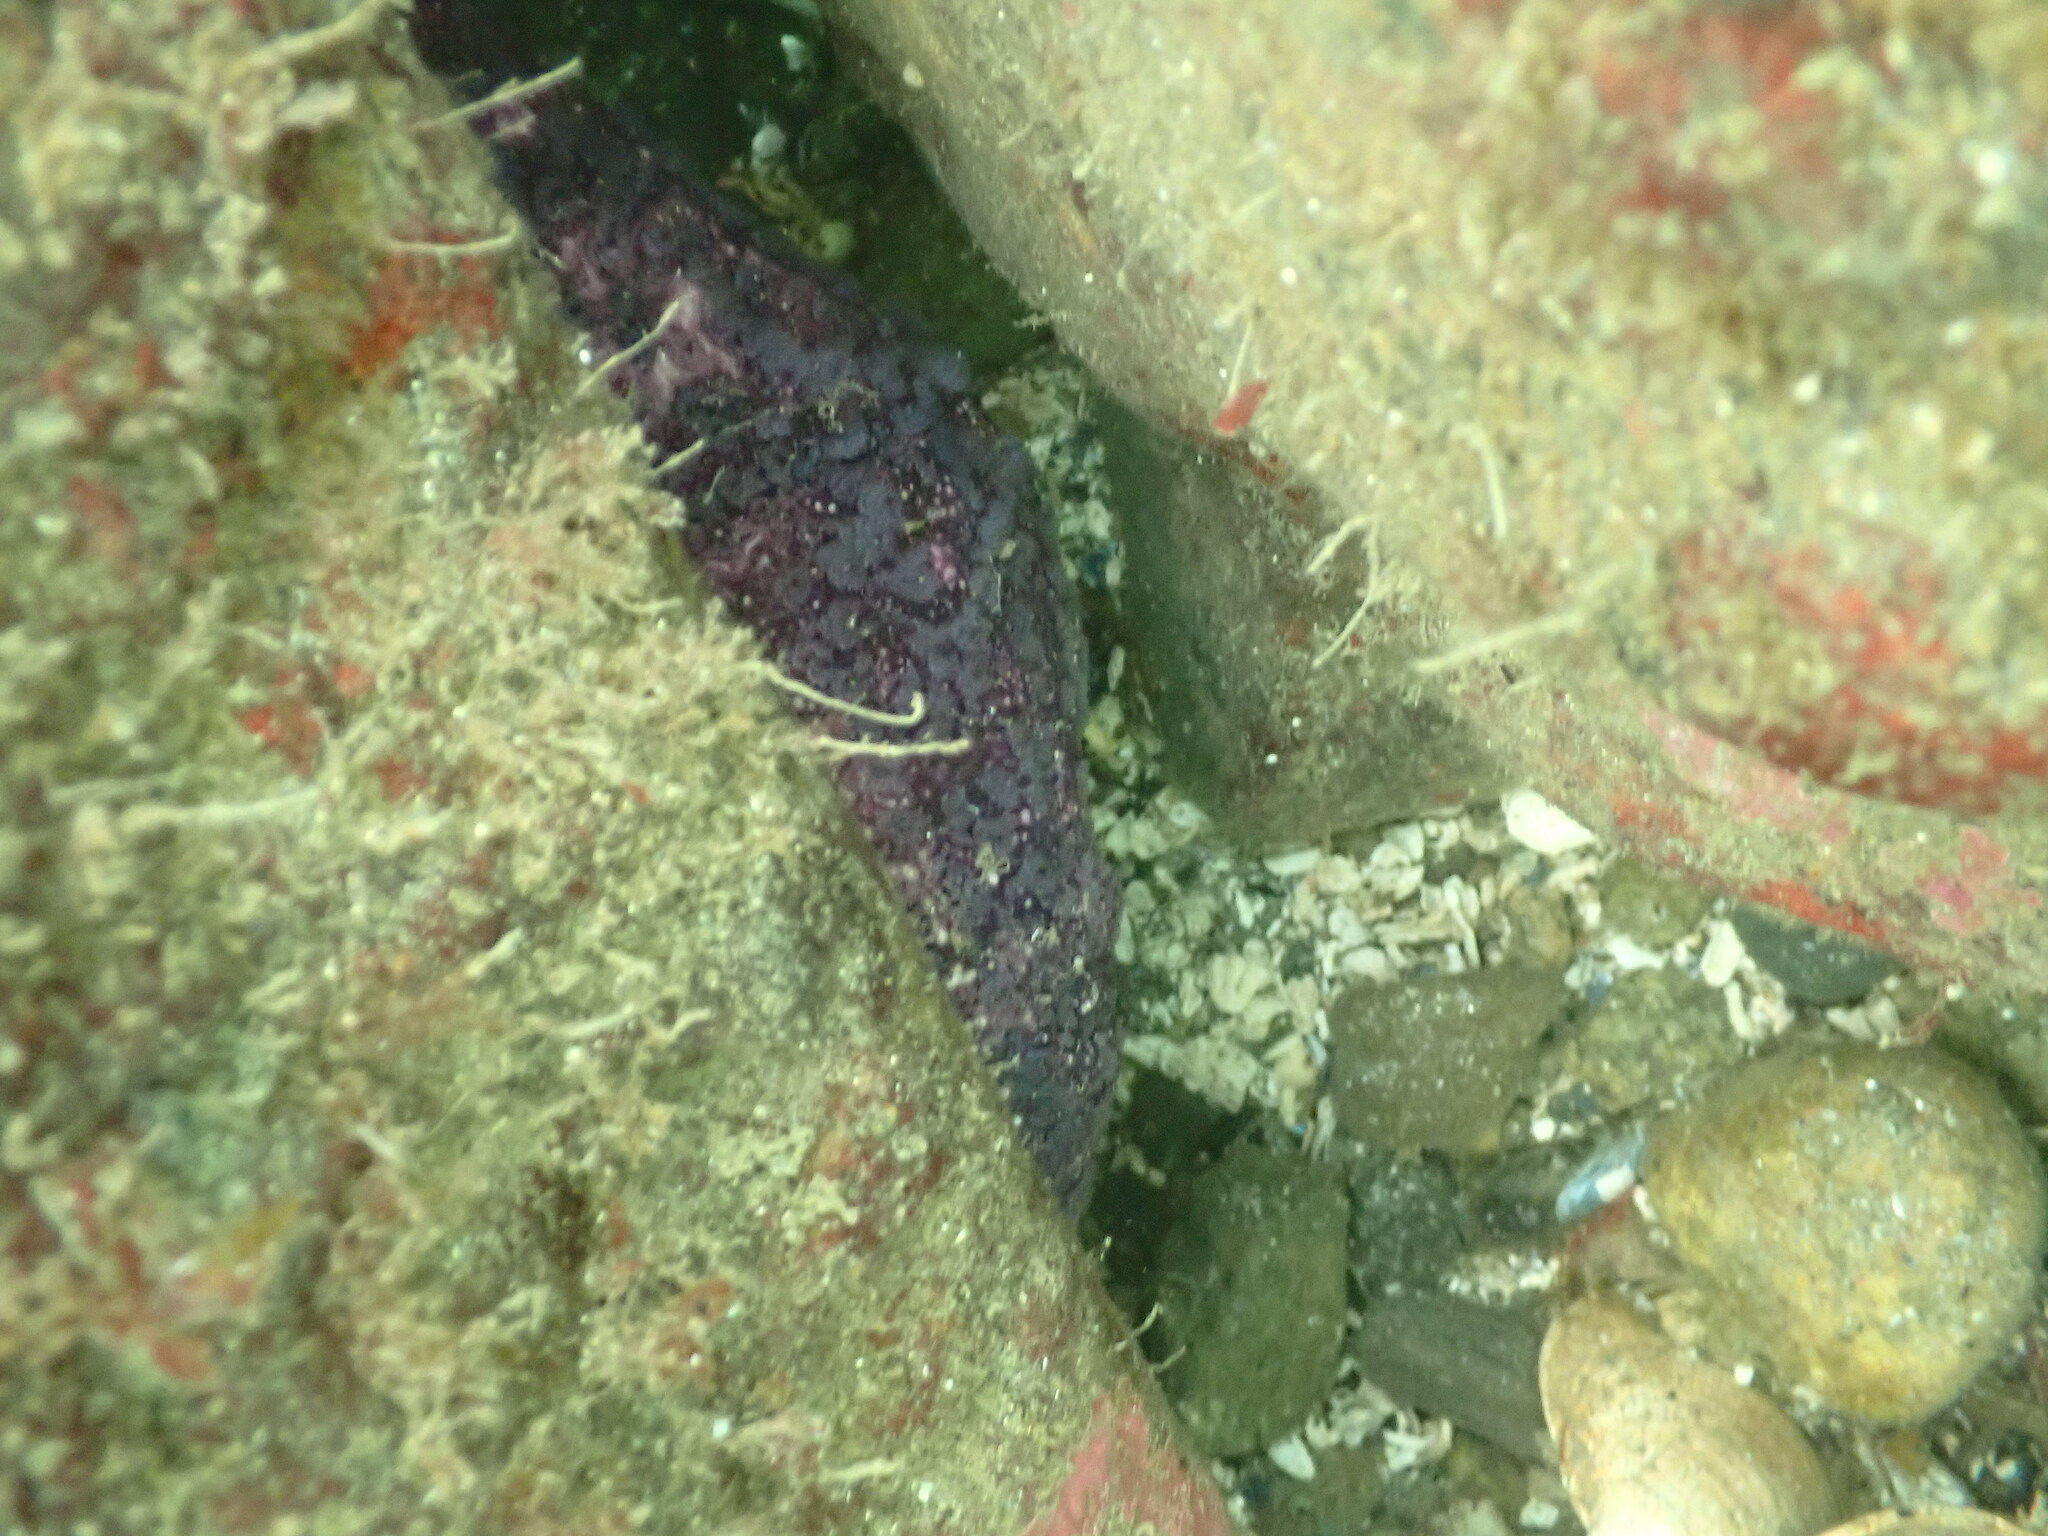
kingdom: Animalia
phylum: Echinodermata
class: Asteroidea
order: Forcipulatida
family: Asteriidae
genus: Pisaster
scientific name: Pisaster ochraceus
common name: Ochre stars
